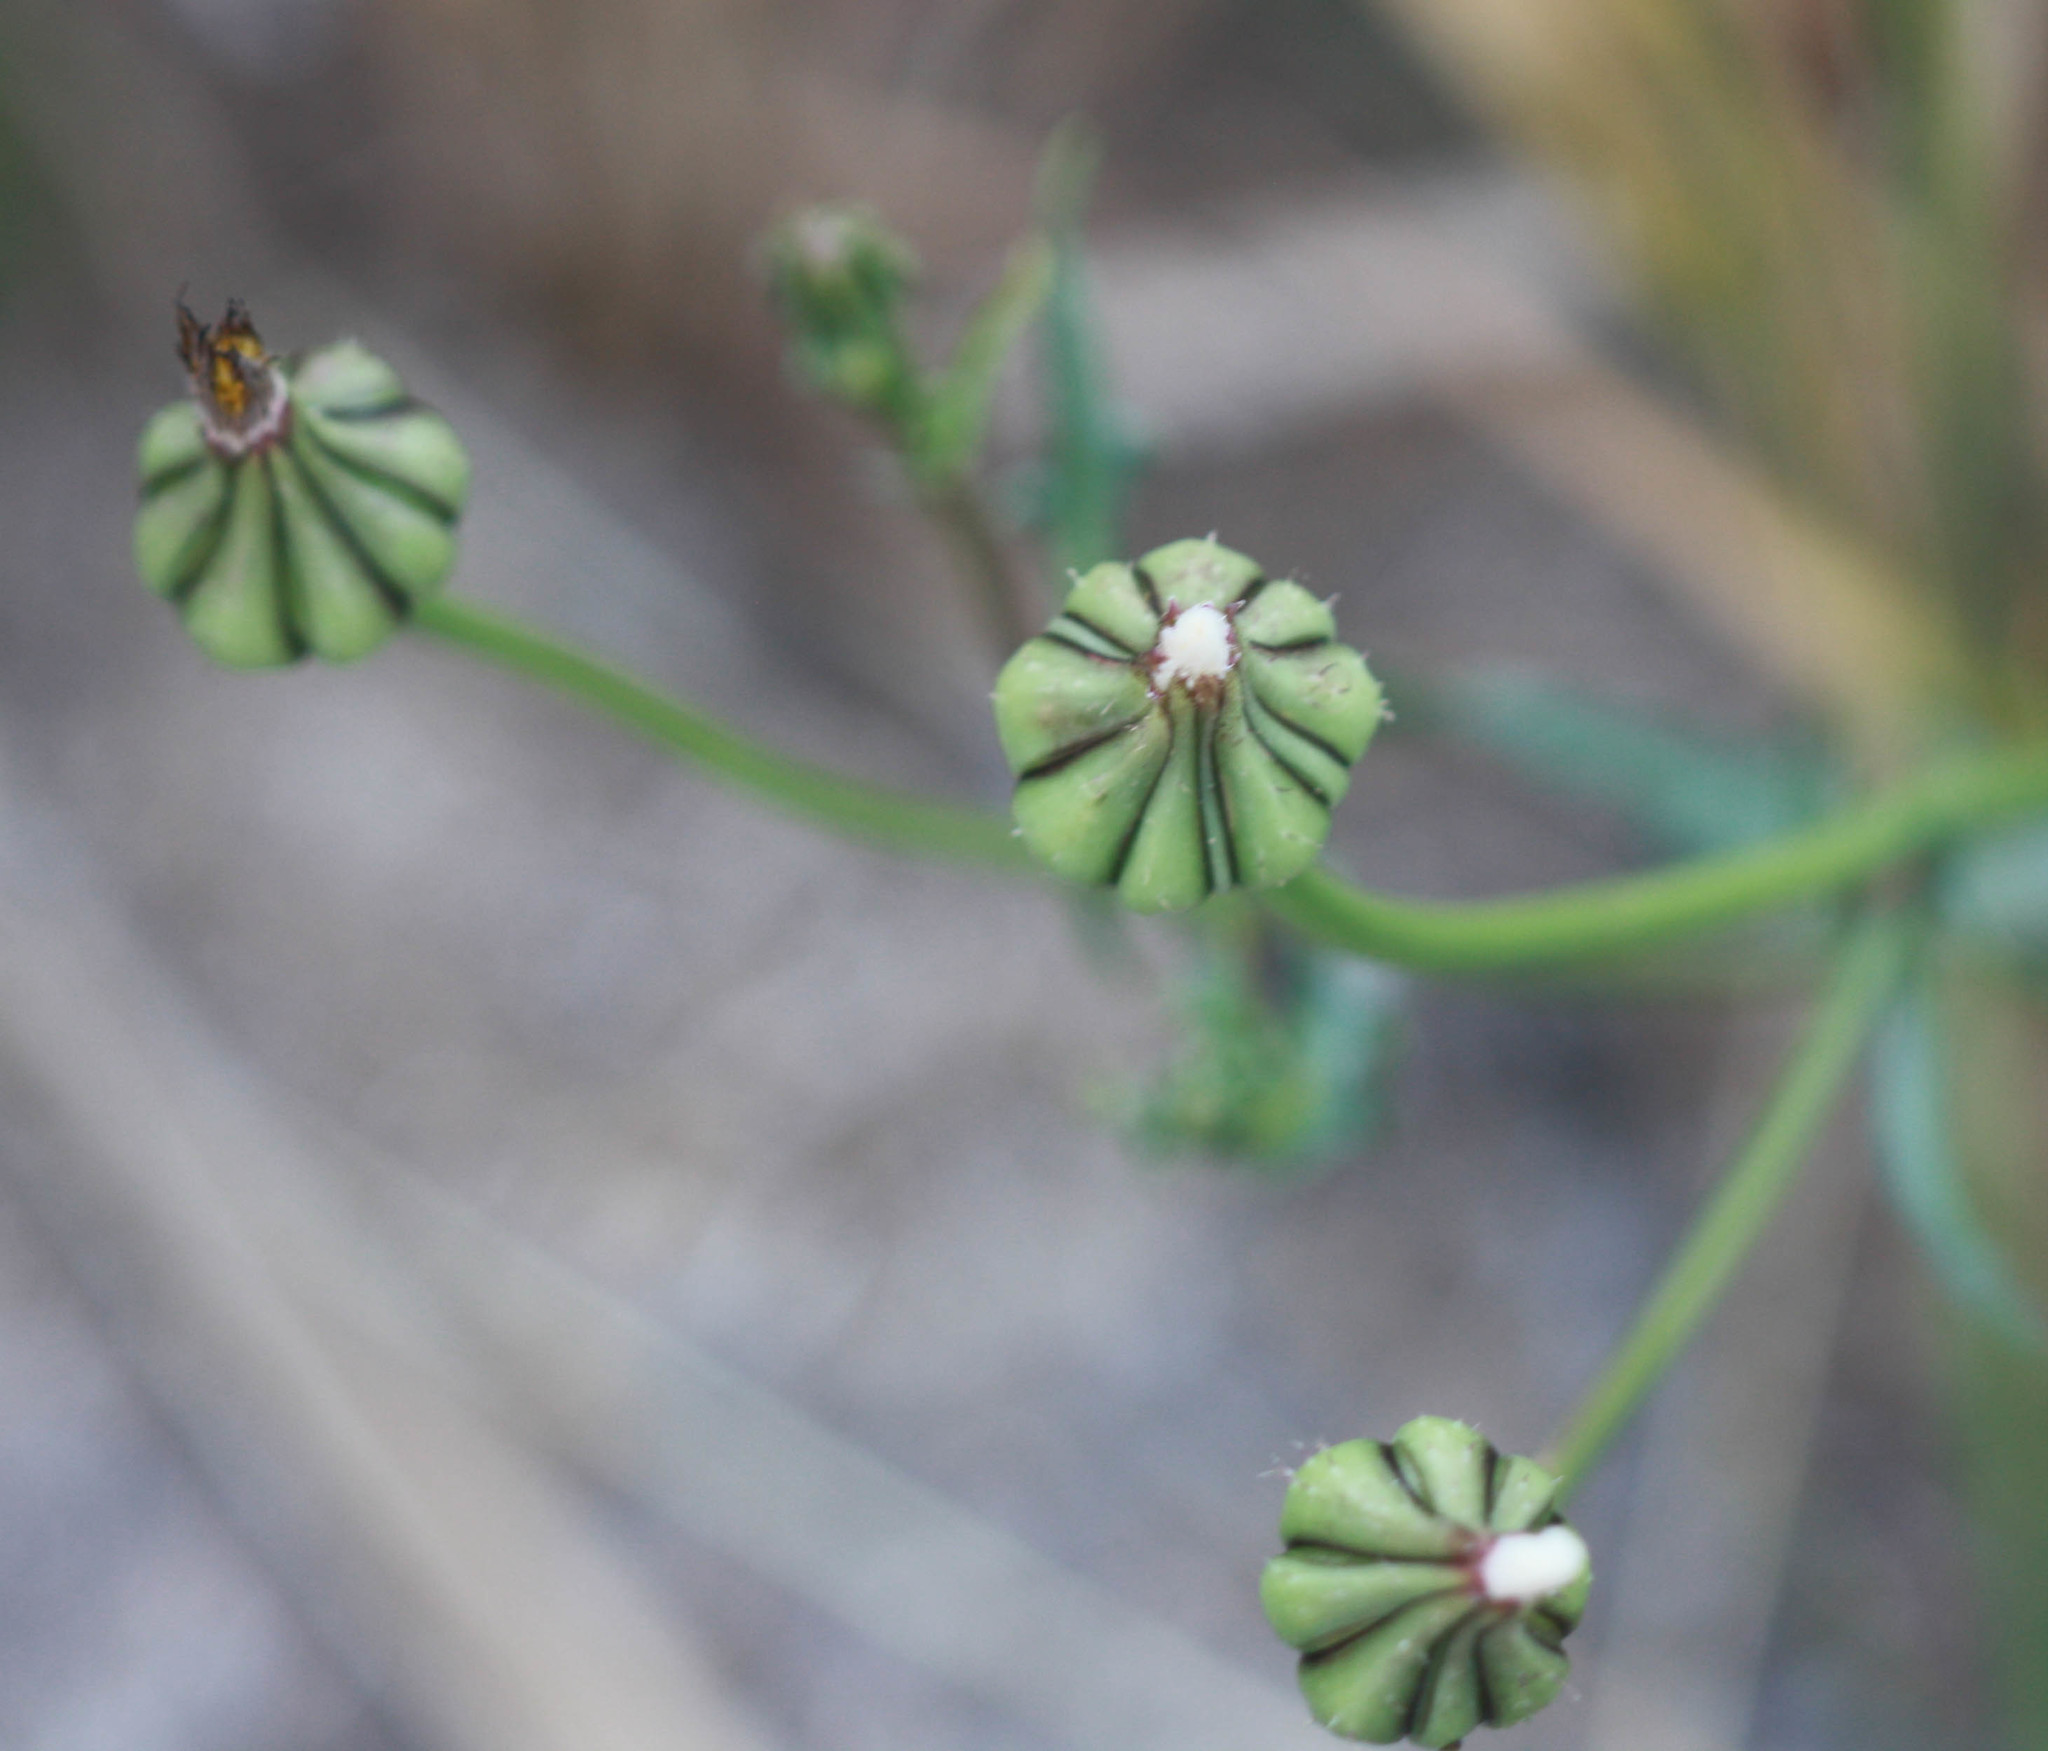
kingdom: Plantae
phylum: Tracheophyta
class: Magnoliopsida
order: Asterales
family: Asteraceae
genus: Urospermum
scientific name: Urospermum picroides
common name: False hawkbit
